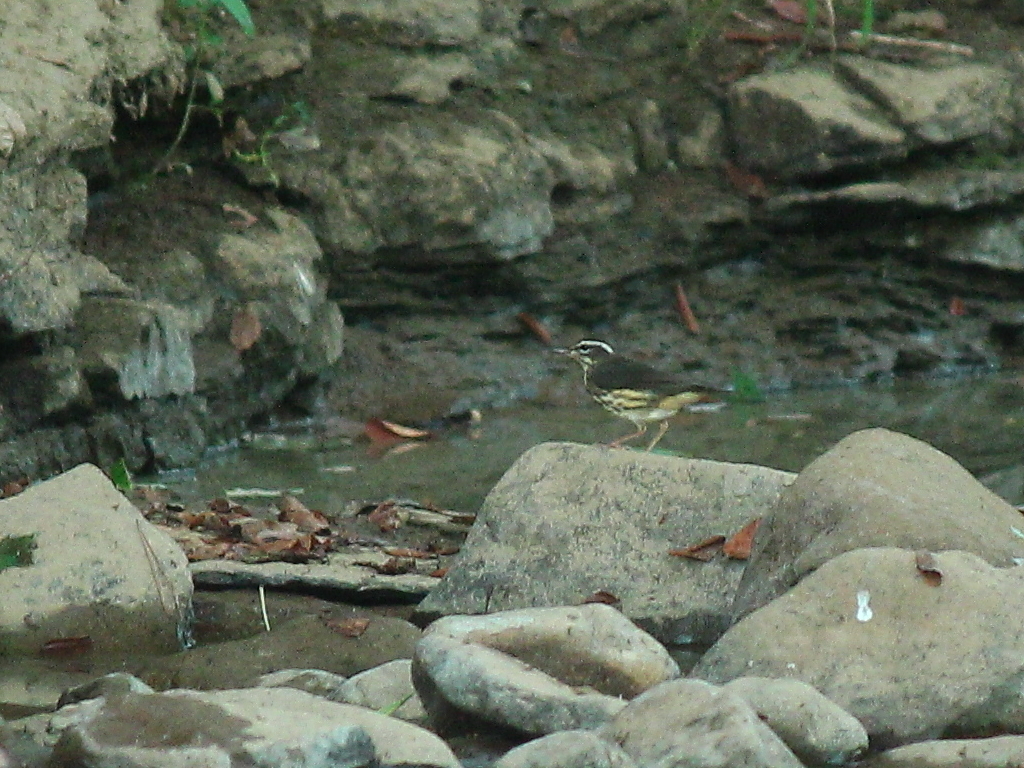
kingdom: Animalia
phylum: Chordata
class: Aves
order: Passeriformes
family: Parulidae
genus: Parkesia
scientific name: Parkesia motacilla
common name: Louisiana waterthrush
